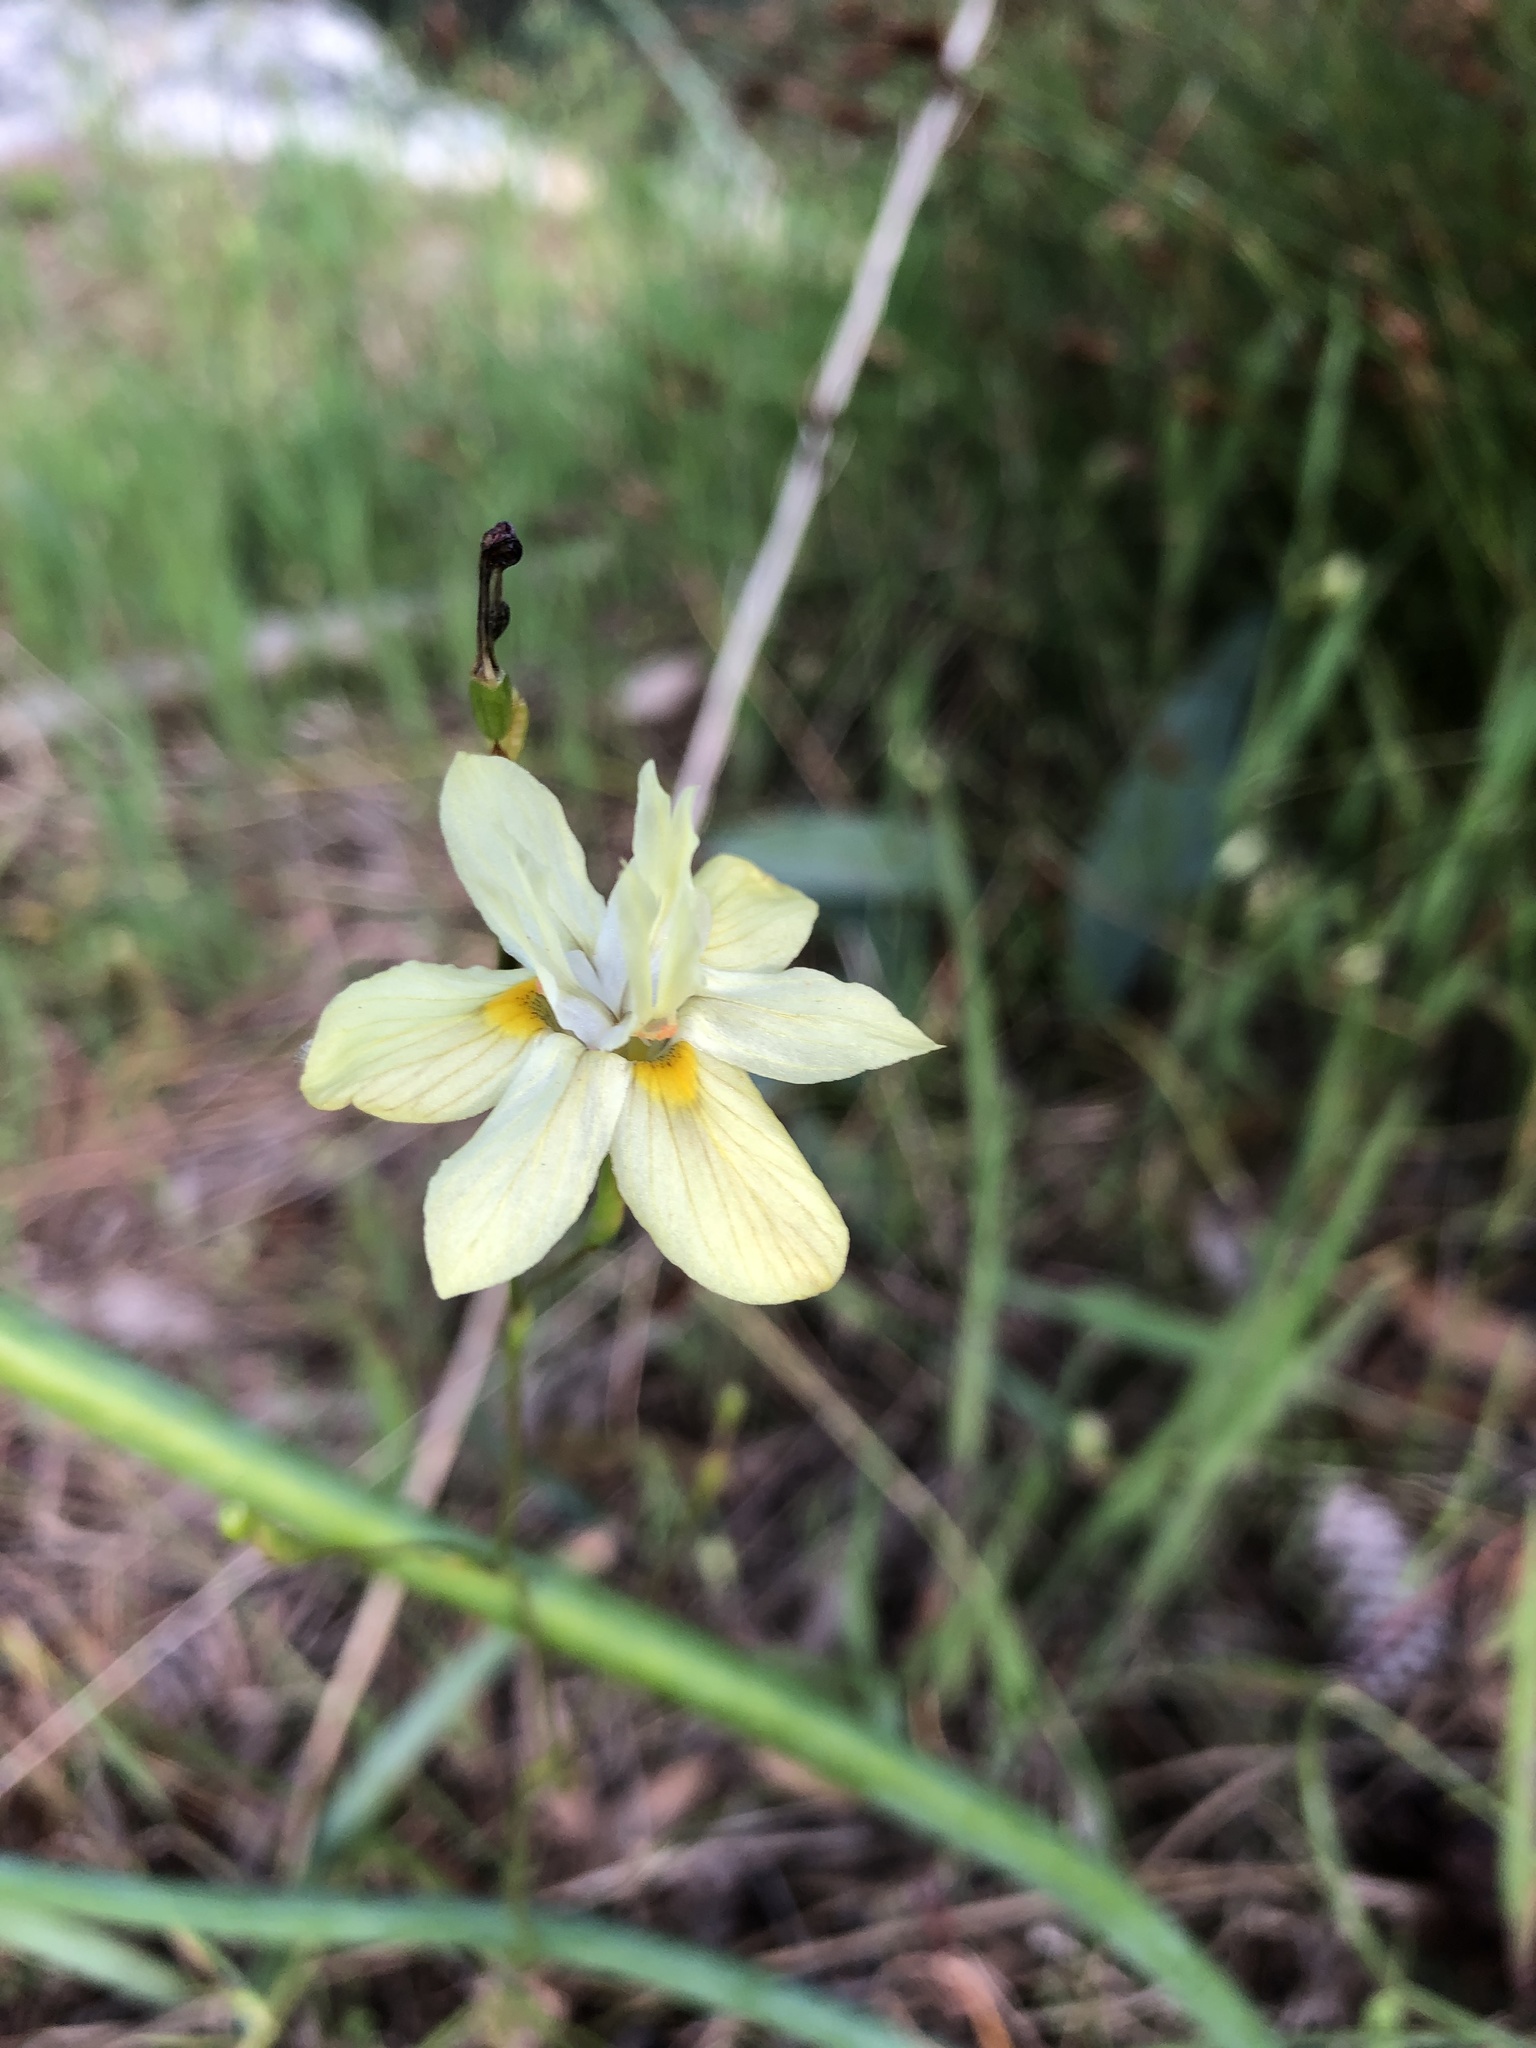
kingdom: Plantae
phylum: Tracheophyta
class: Liliopsida
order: Asparagales
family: Iridaceae
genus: Moraea
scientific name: Moraea gawleri
